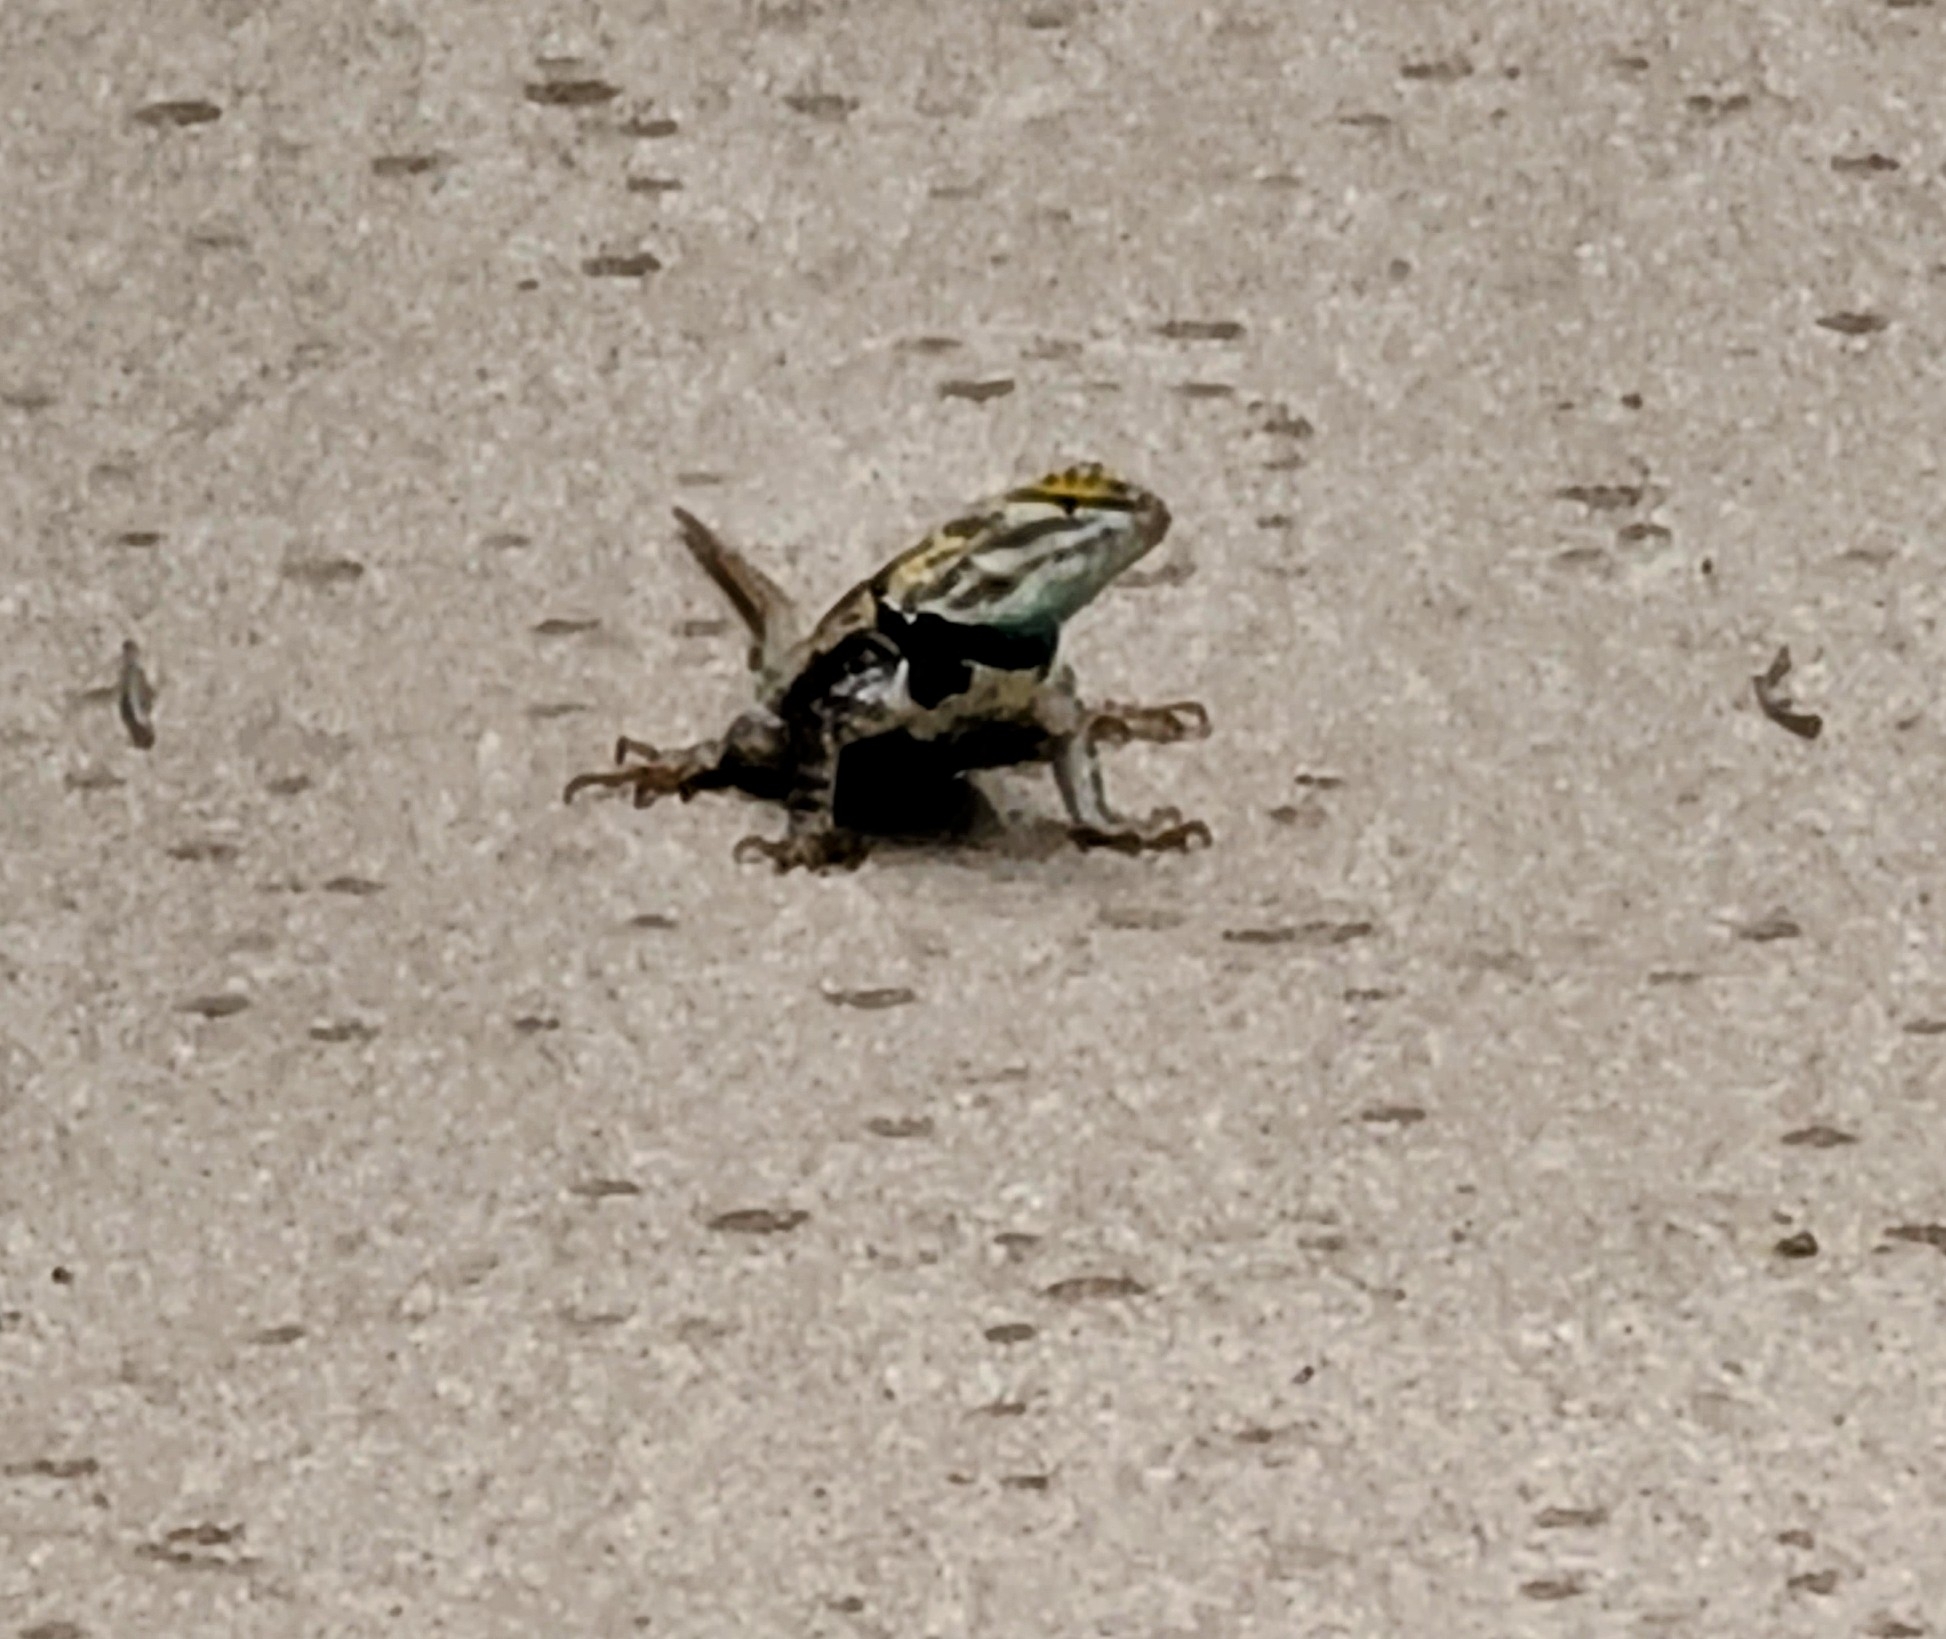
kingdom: Animalia
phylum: Chordata
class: Squamata
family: Phrynosomatidae
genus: Sceloporus
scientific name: Sceloporus magister
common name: Desert spiny lizard
